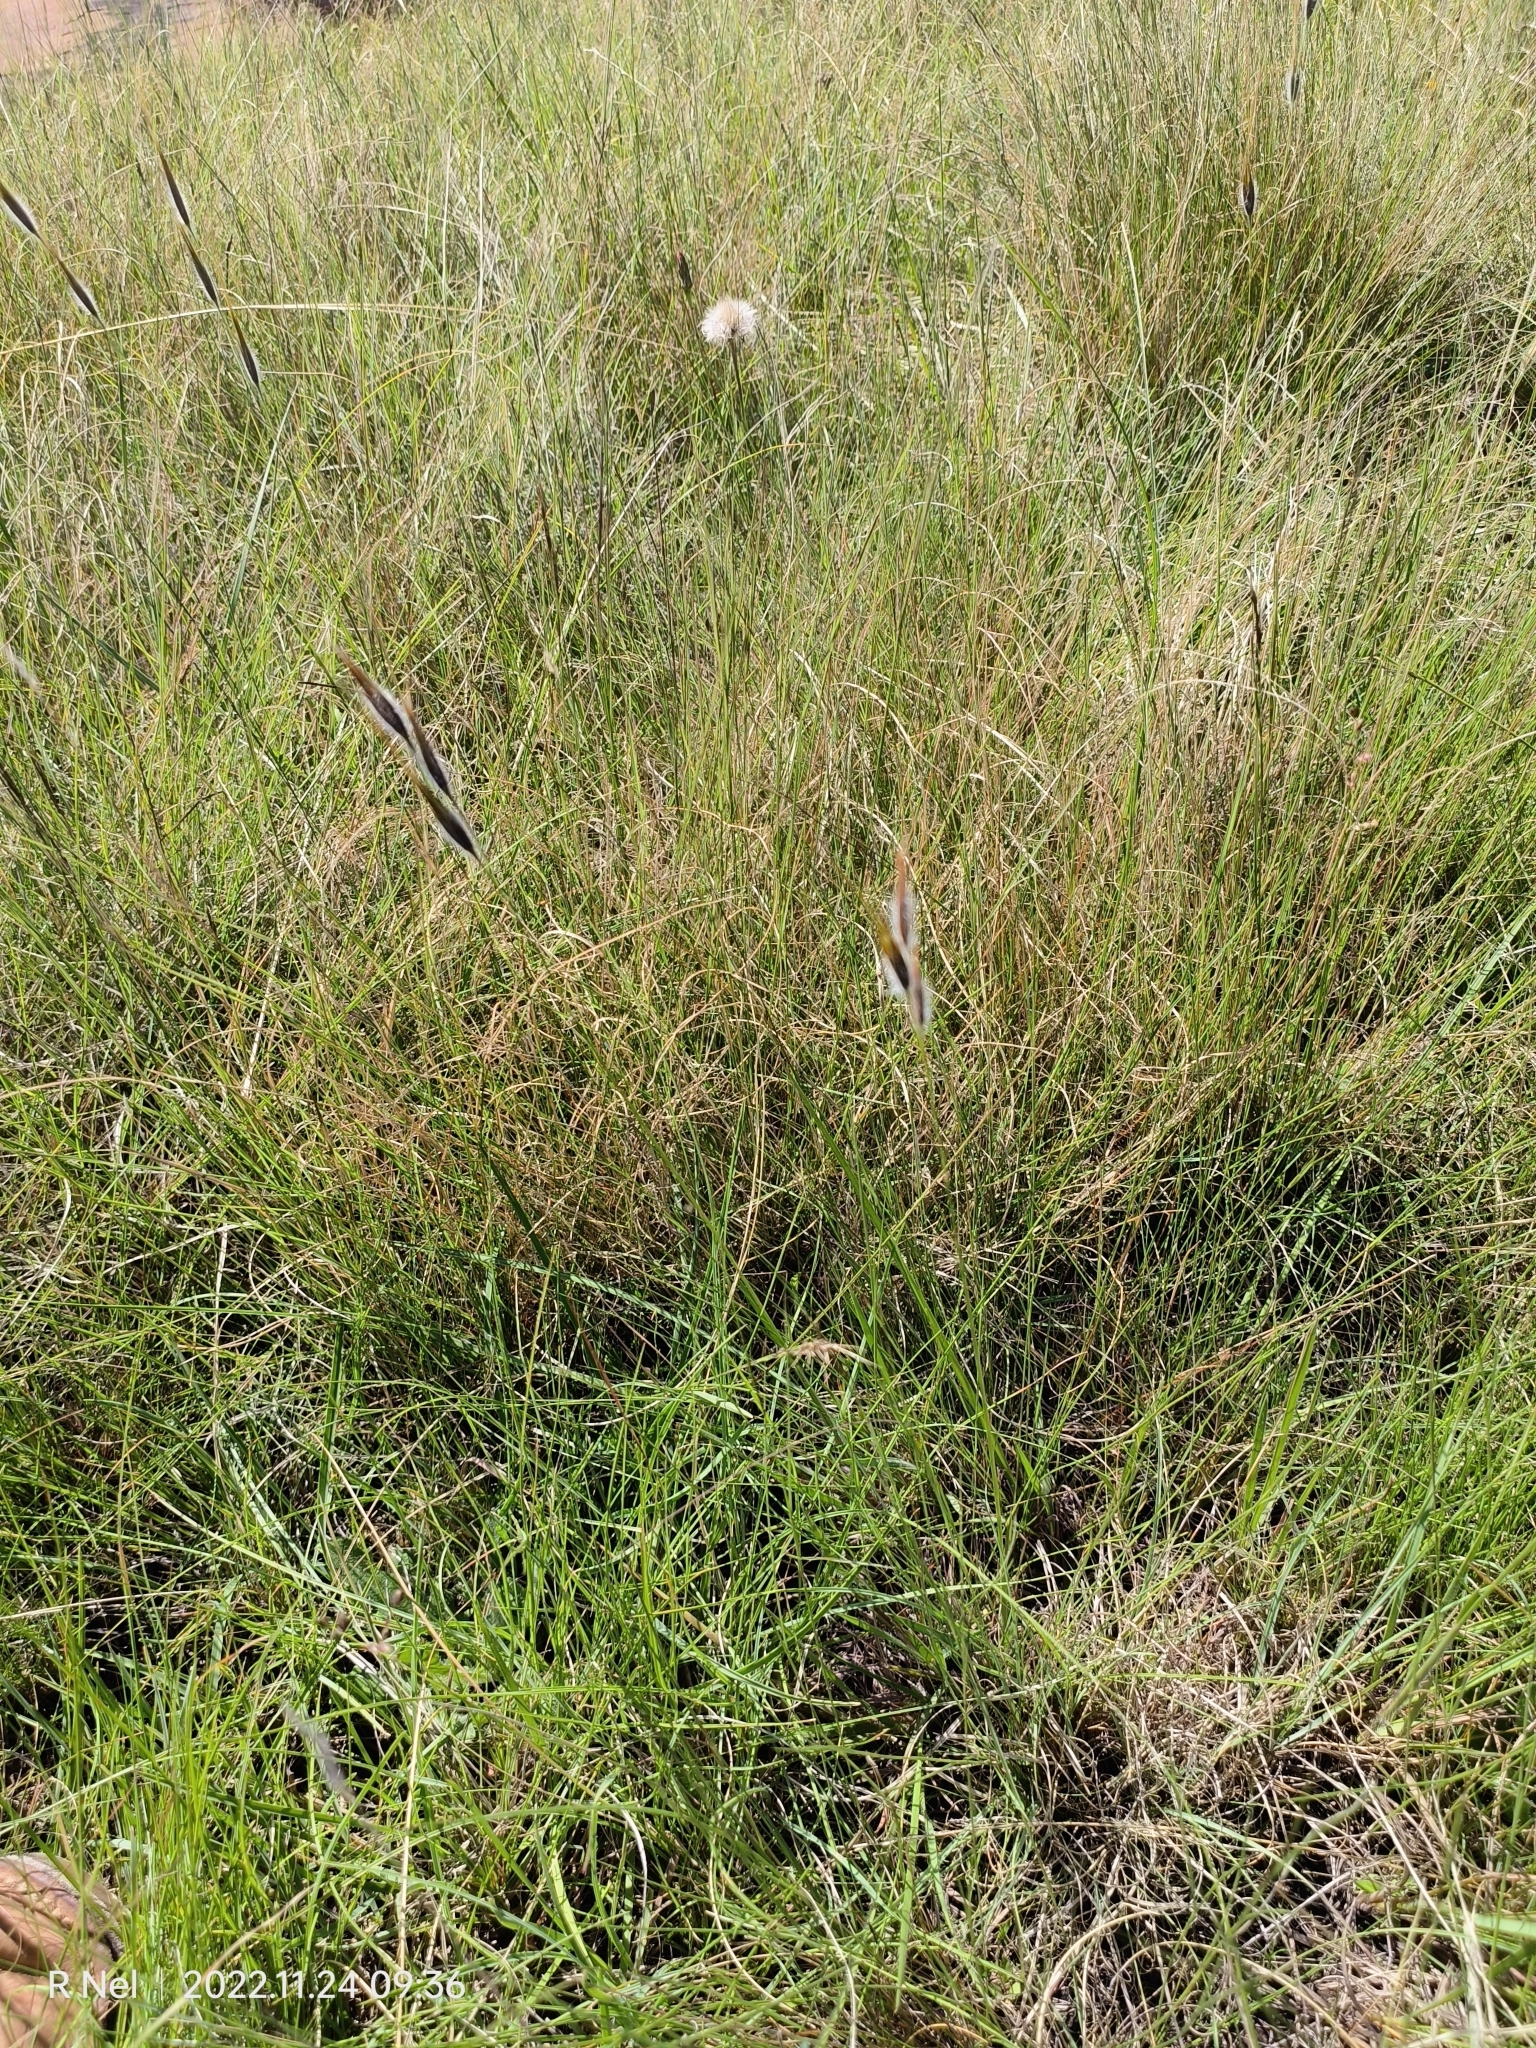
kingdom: Plantae
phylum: Tracheophyta
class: Liliopsida
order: Poales
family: Poaceae
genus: Tristachya
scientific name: Tristachya leucothrix
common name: Trident grass
